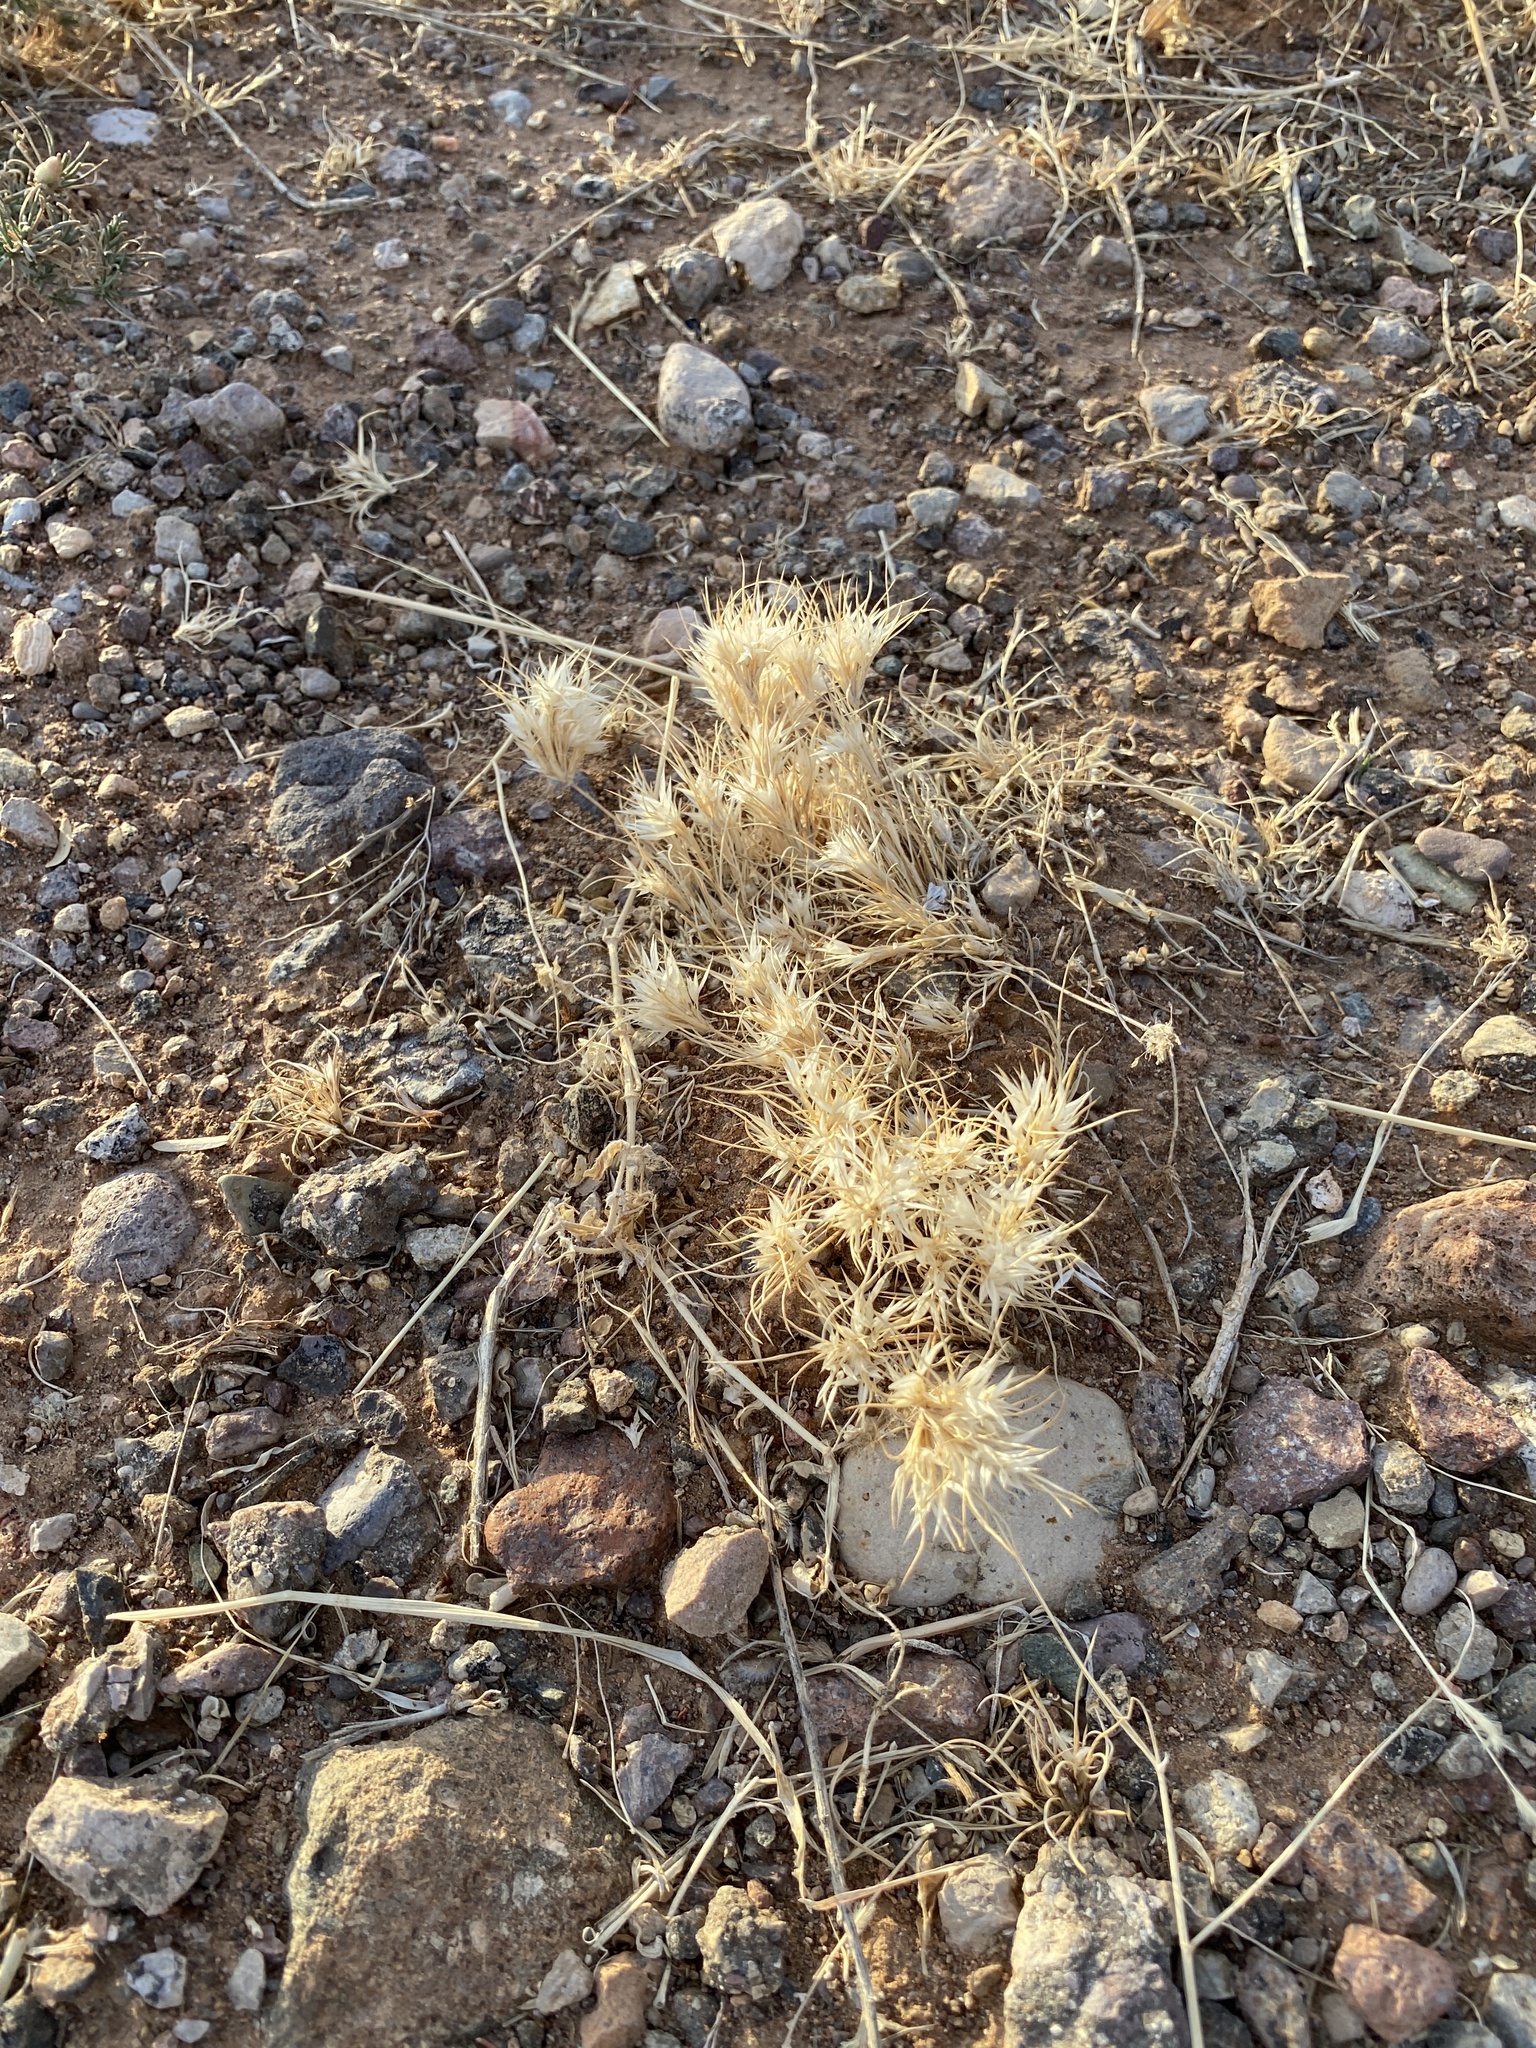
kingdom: Plantae
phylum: Tracheophyta
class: Liliopsida
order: Poales
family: Poaceae
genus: Dasyochloa
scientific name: Dasyochloa pulchella
